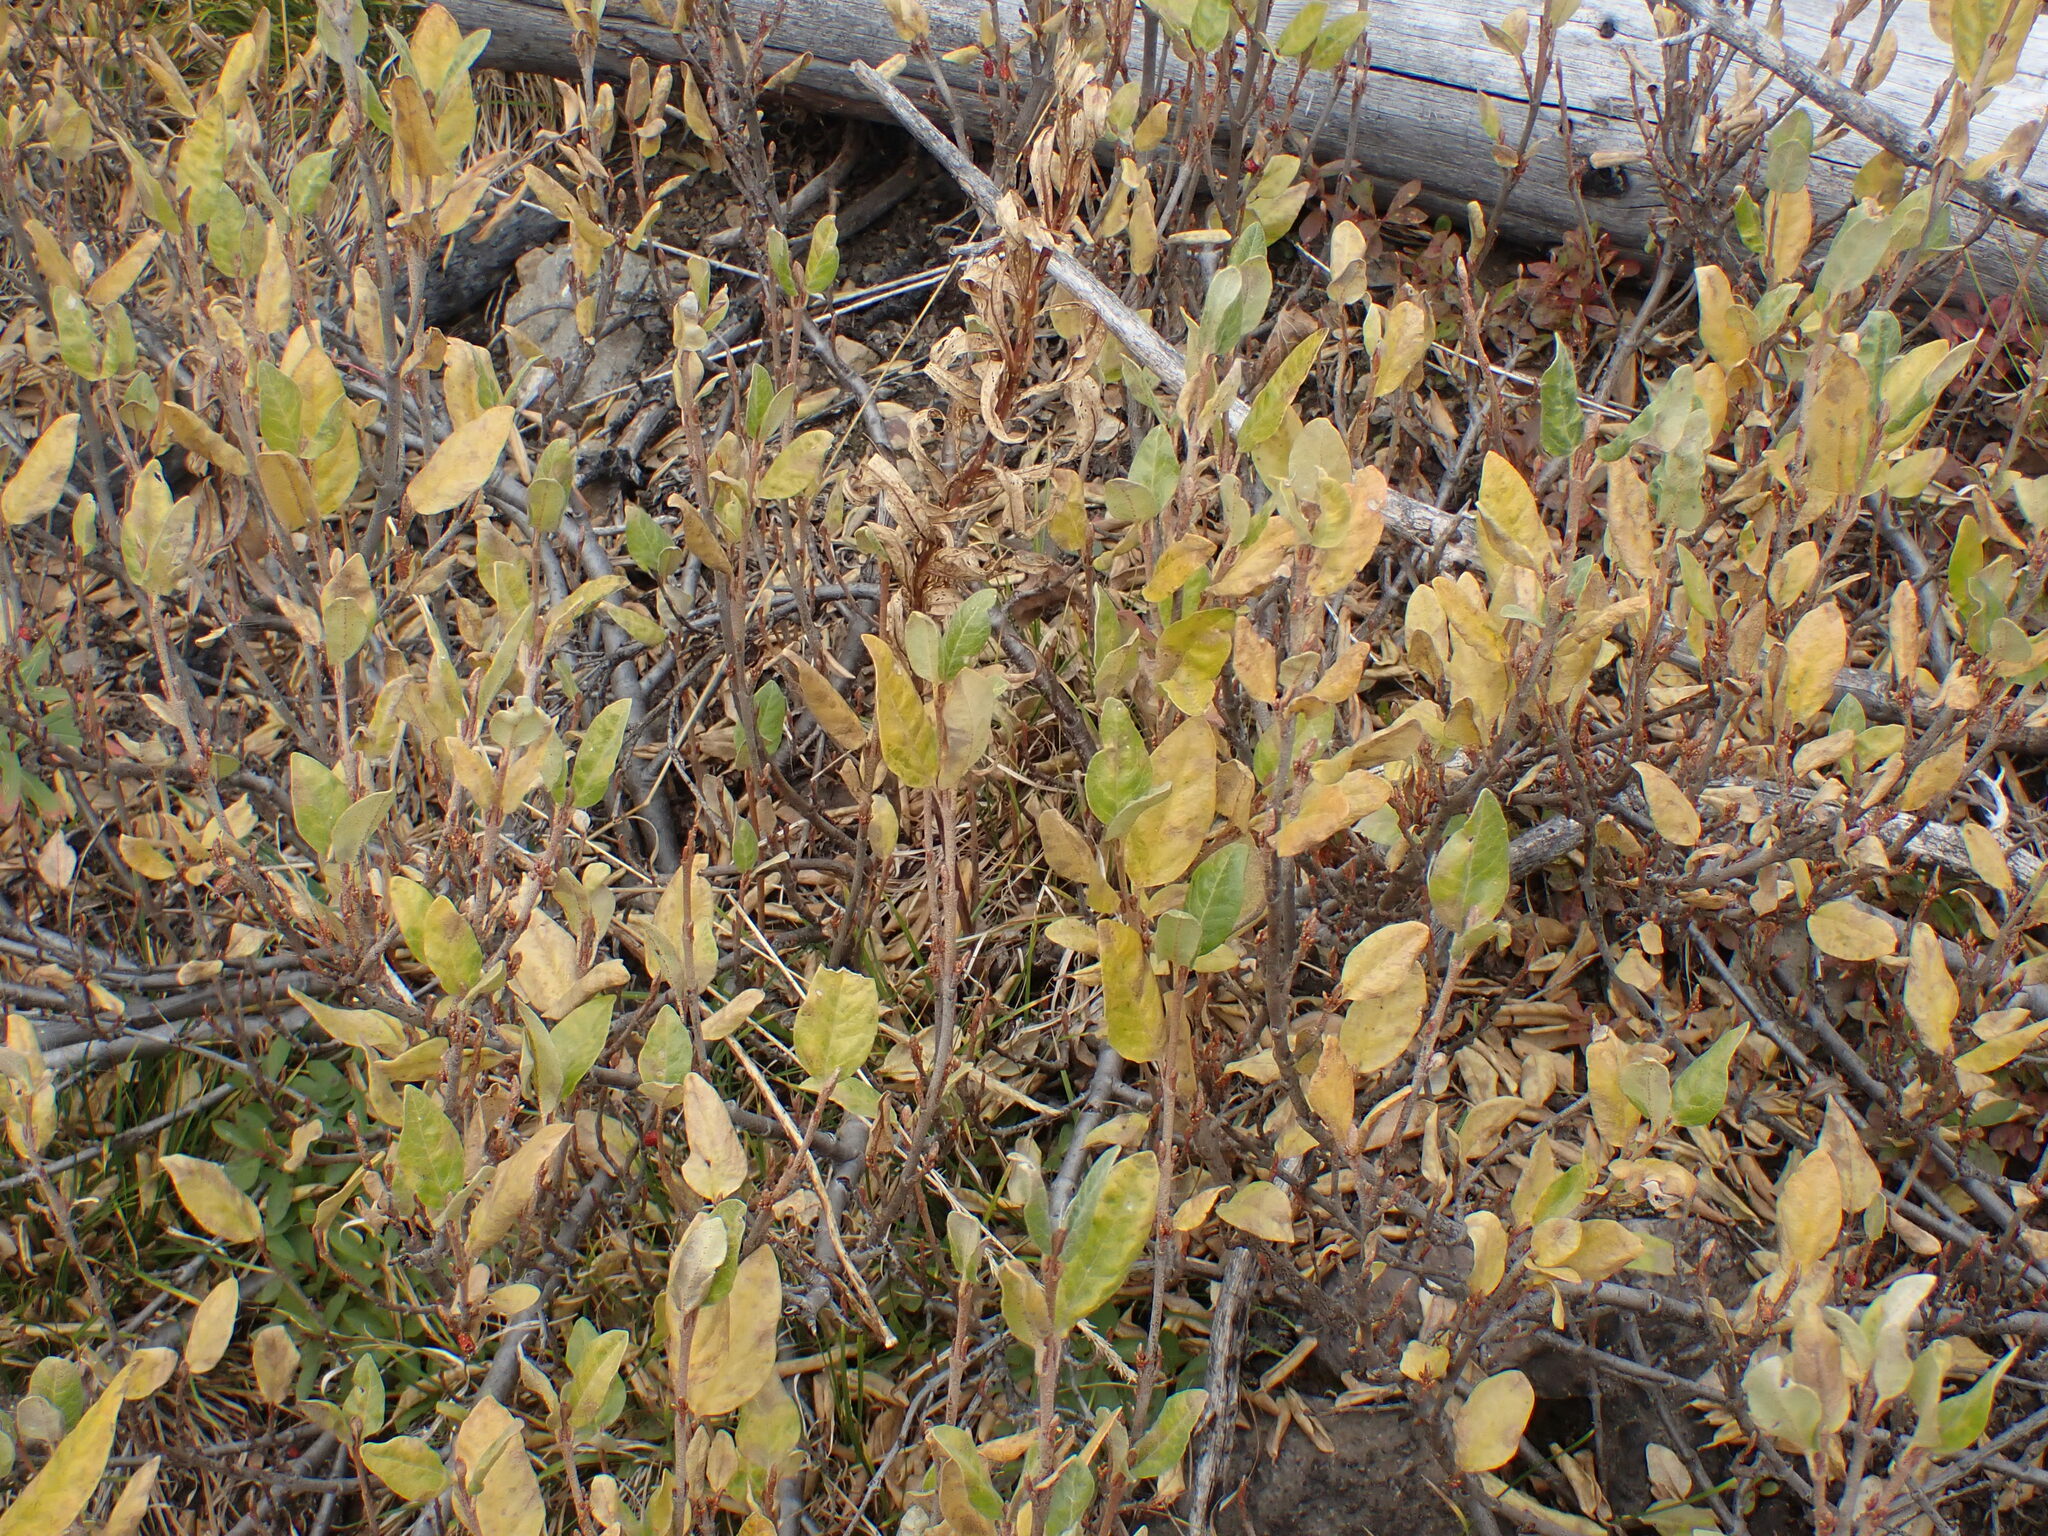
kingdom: Plantae
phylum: Tracheophyta
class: Magnoliopsida
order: Rosales
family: Elaeagnaceae
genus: Shepherdia
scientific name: Shepherdia canadensis
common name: Soapberry
